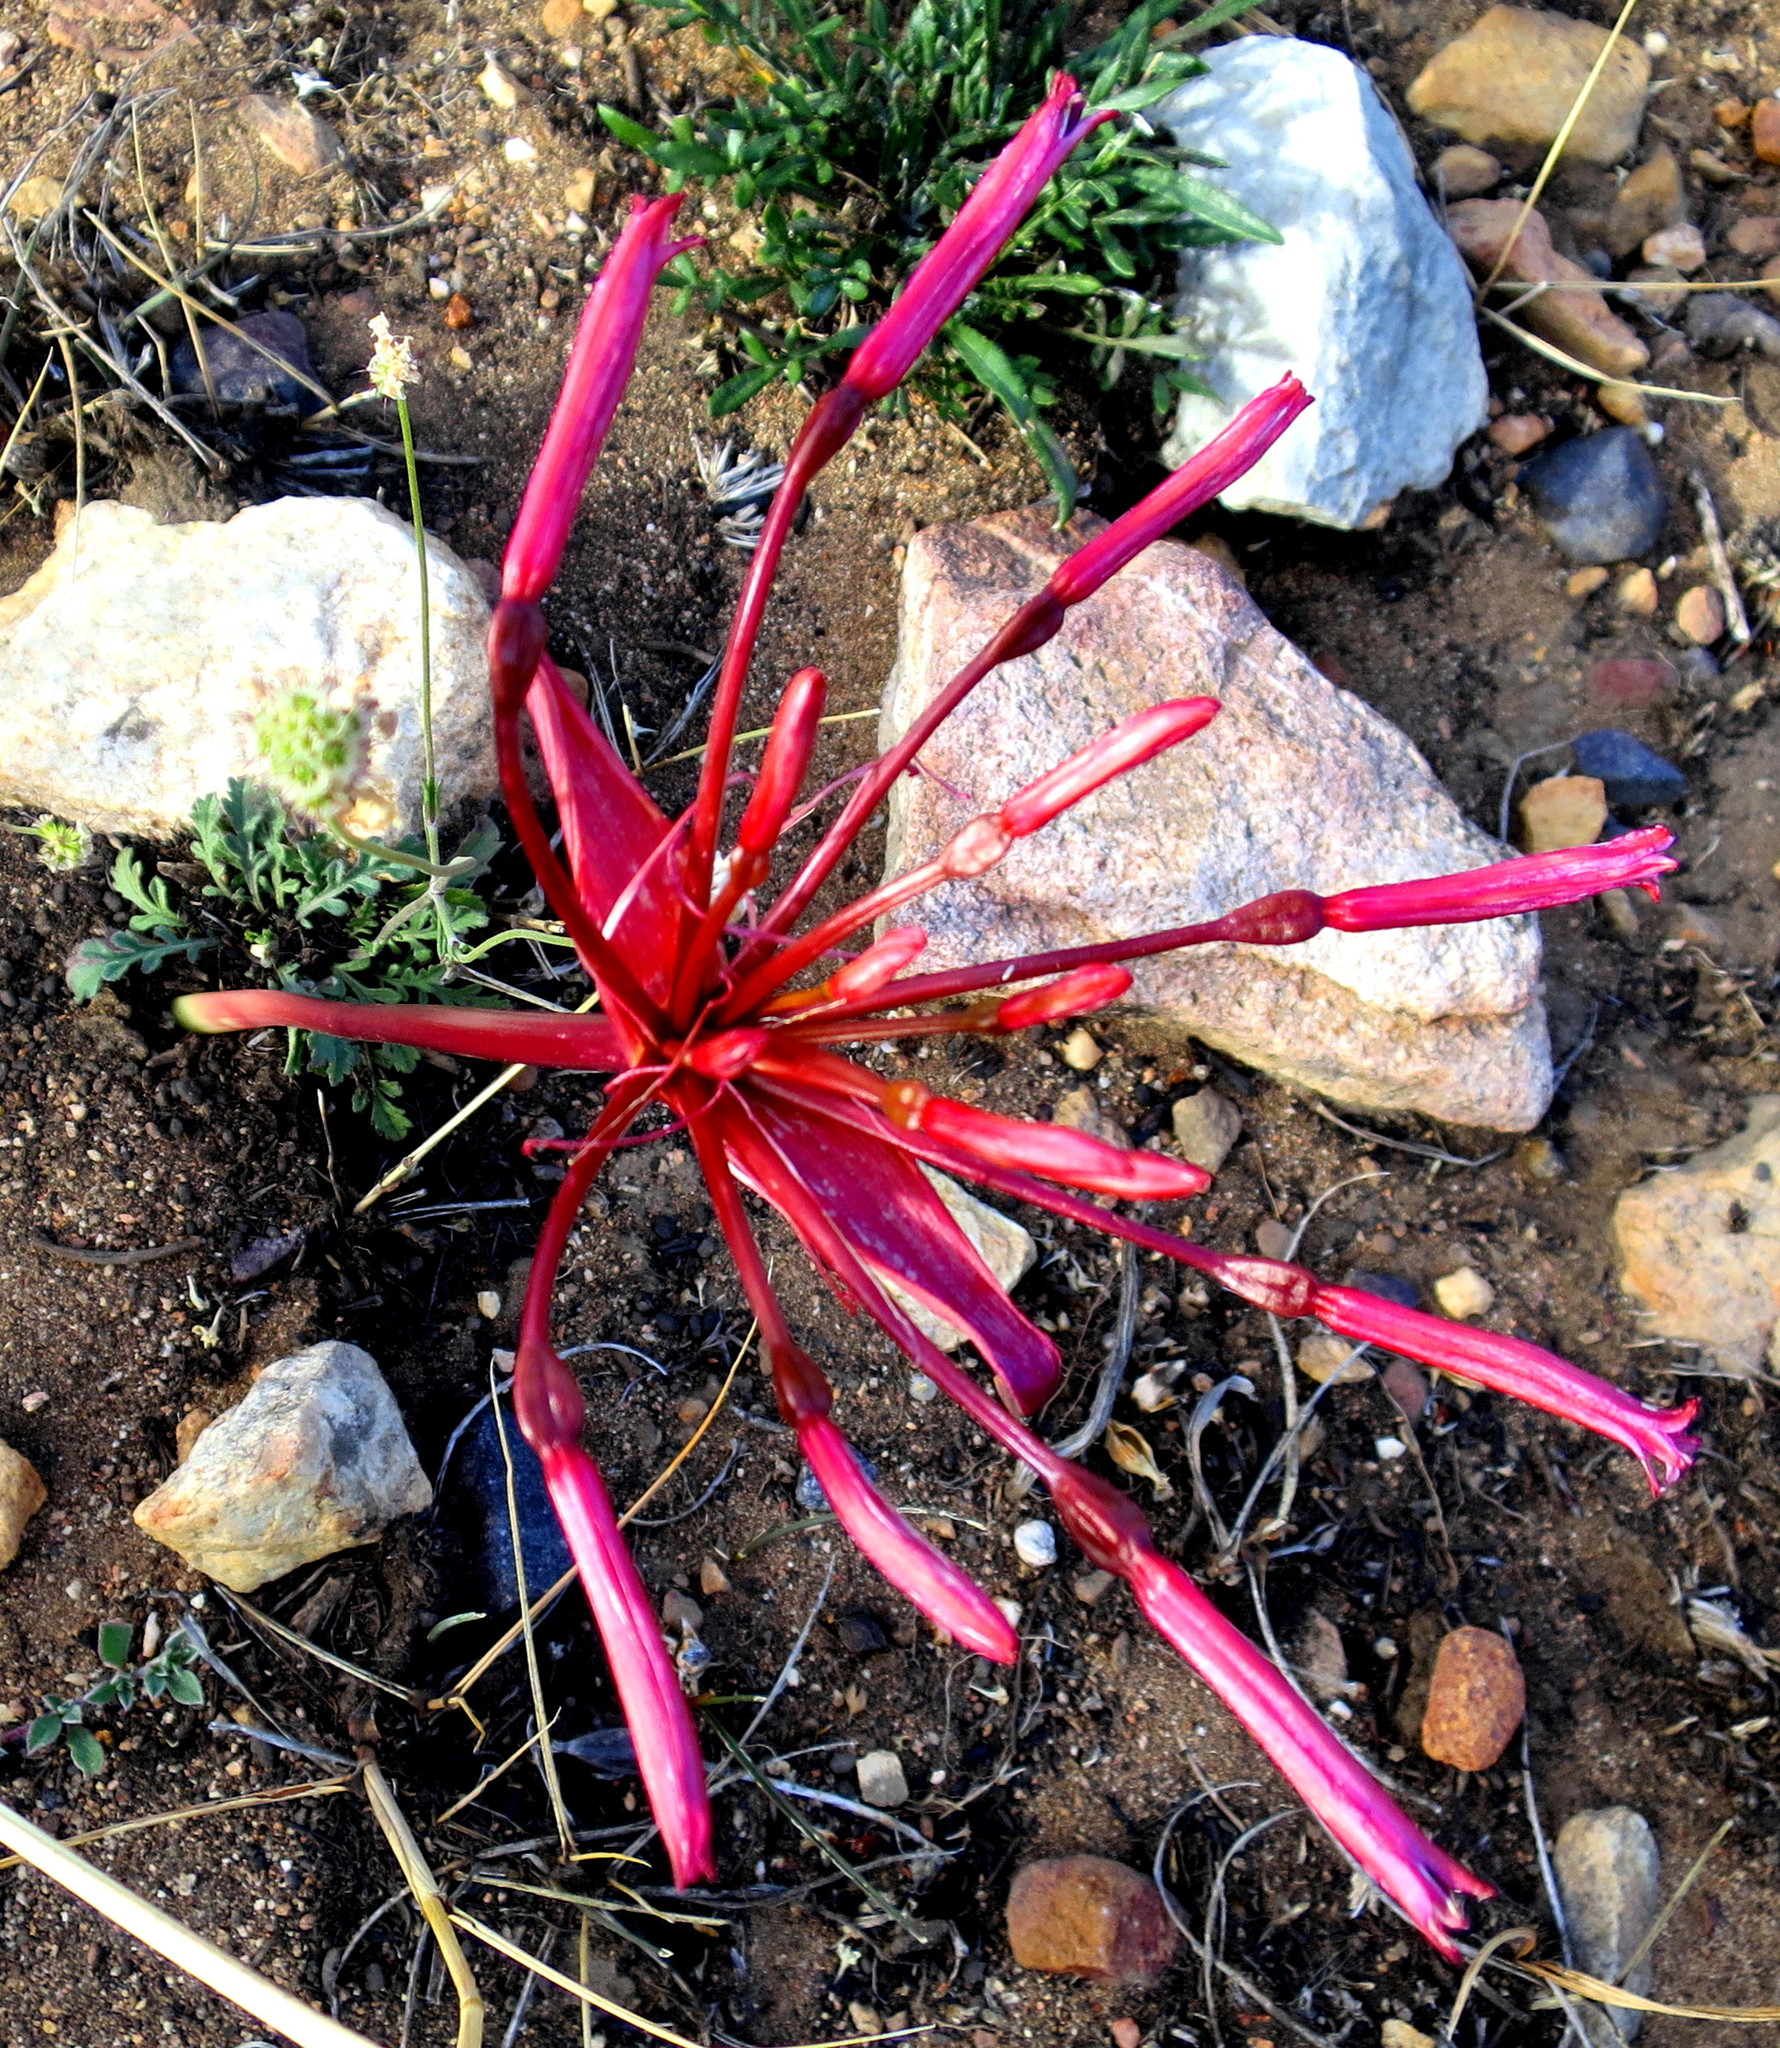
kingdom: Plantae
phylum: Tracheophyta
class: Liliopsida
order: Asparagales
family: Amaryllidaceae
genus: Brunsvigia
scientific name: Brunsvigia nervosa
